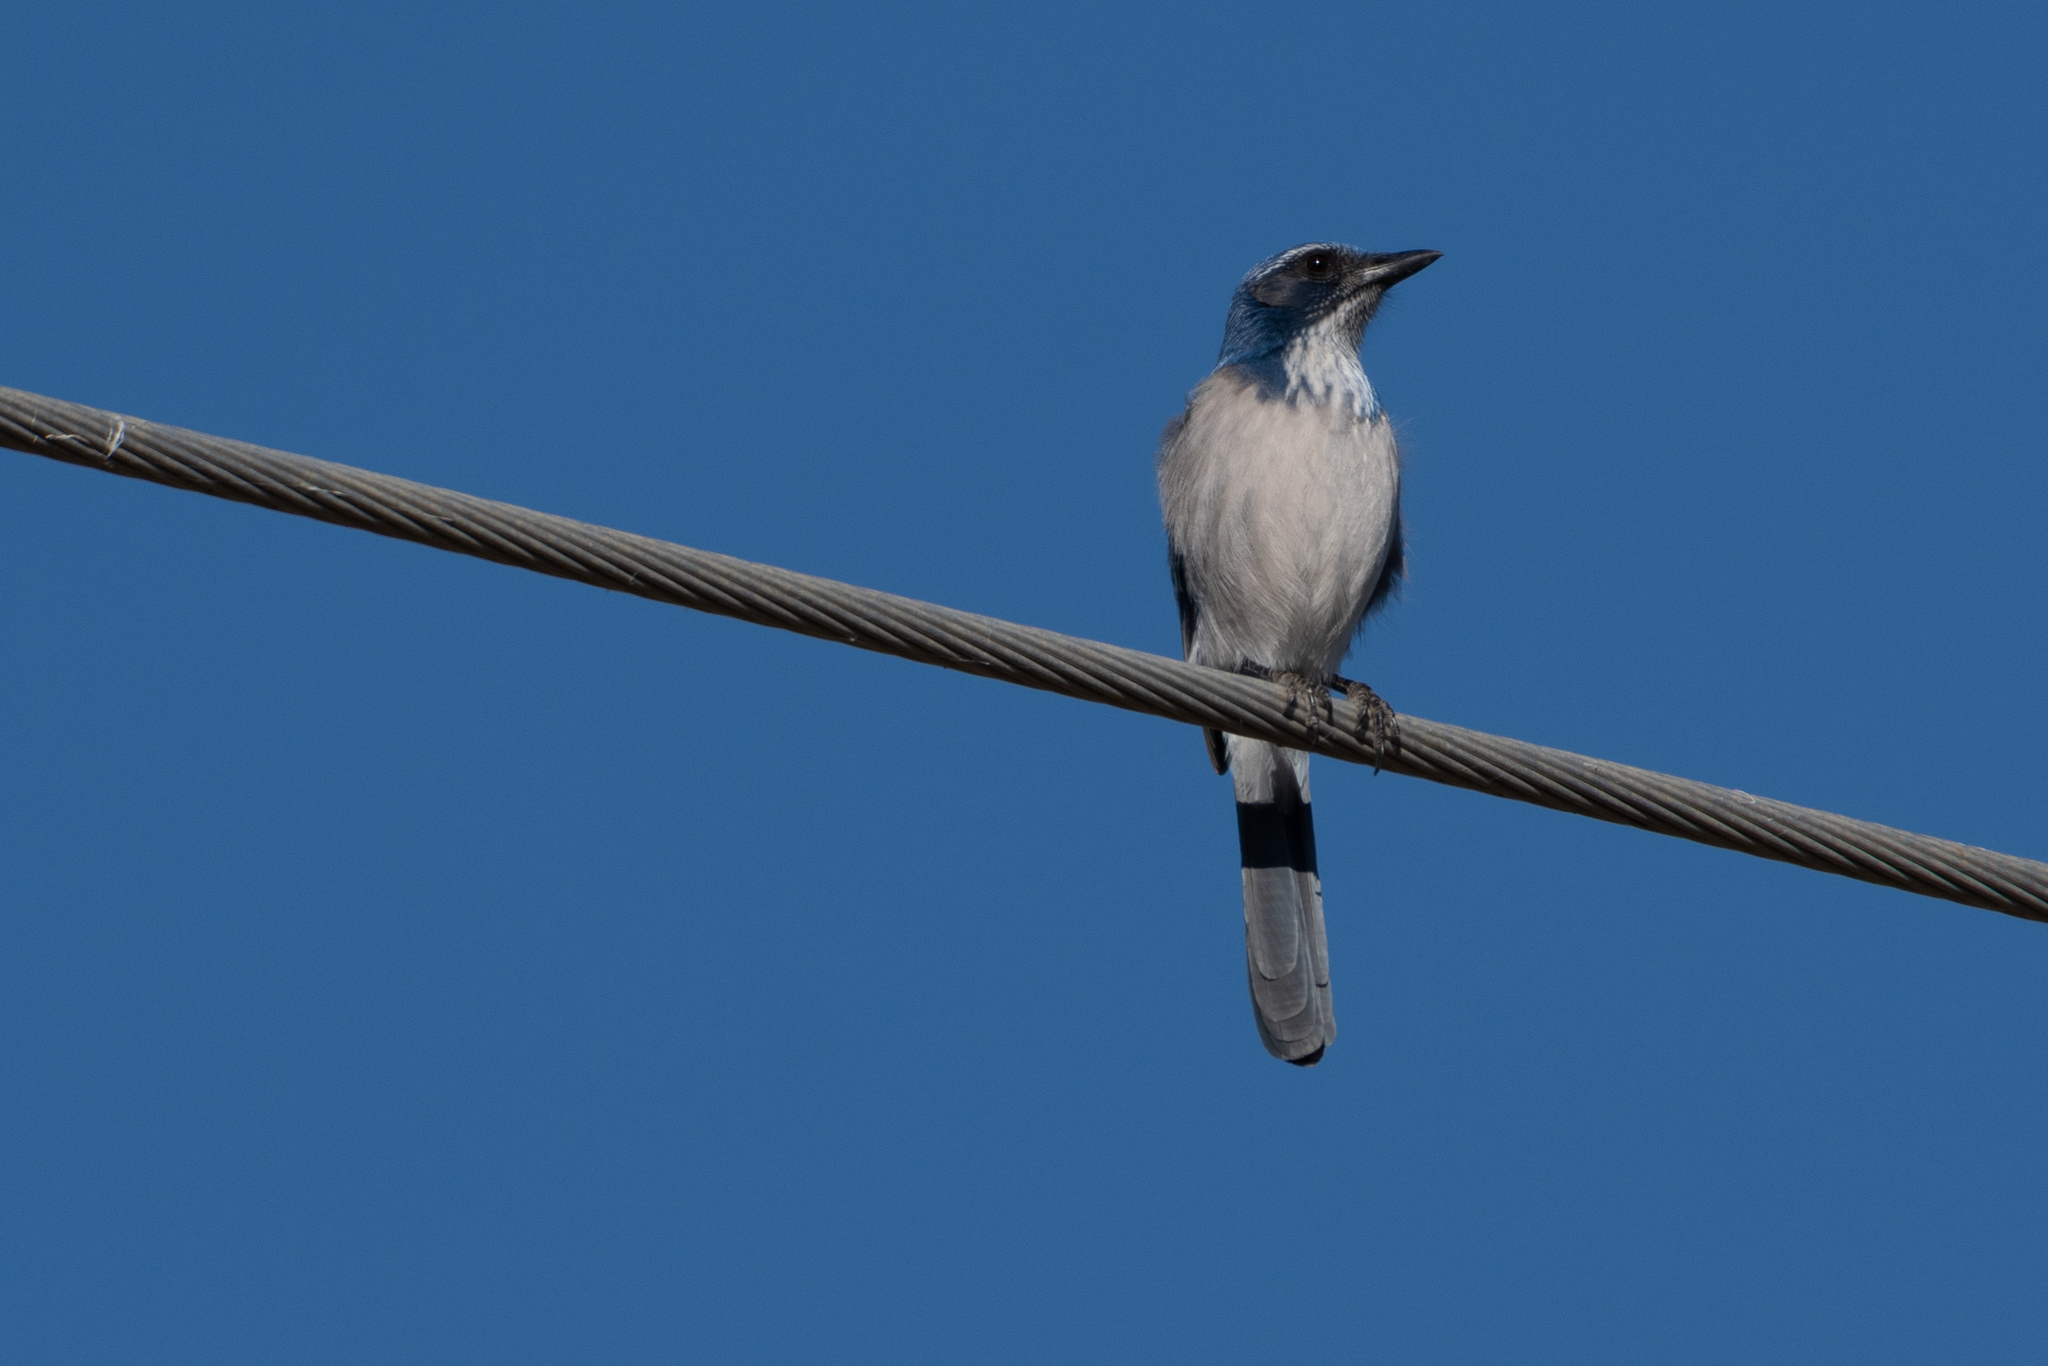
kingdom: Animalia
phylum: Chordata
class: Aves
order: Passeriformes
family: Corvidae
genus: Aphelocoma
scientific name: Aphelocoma californica
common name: California scrub-jay
